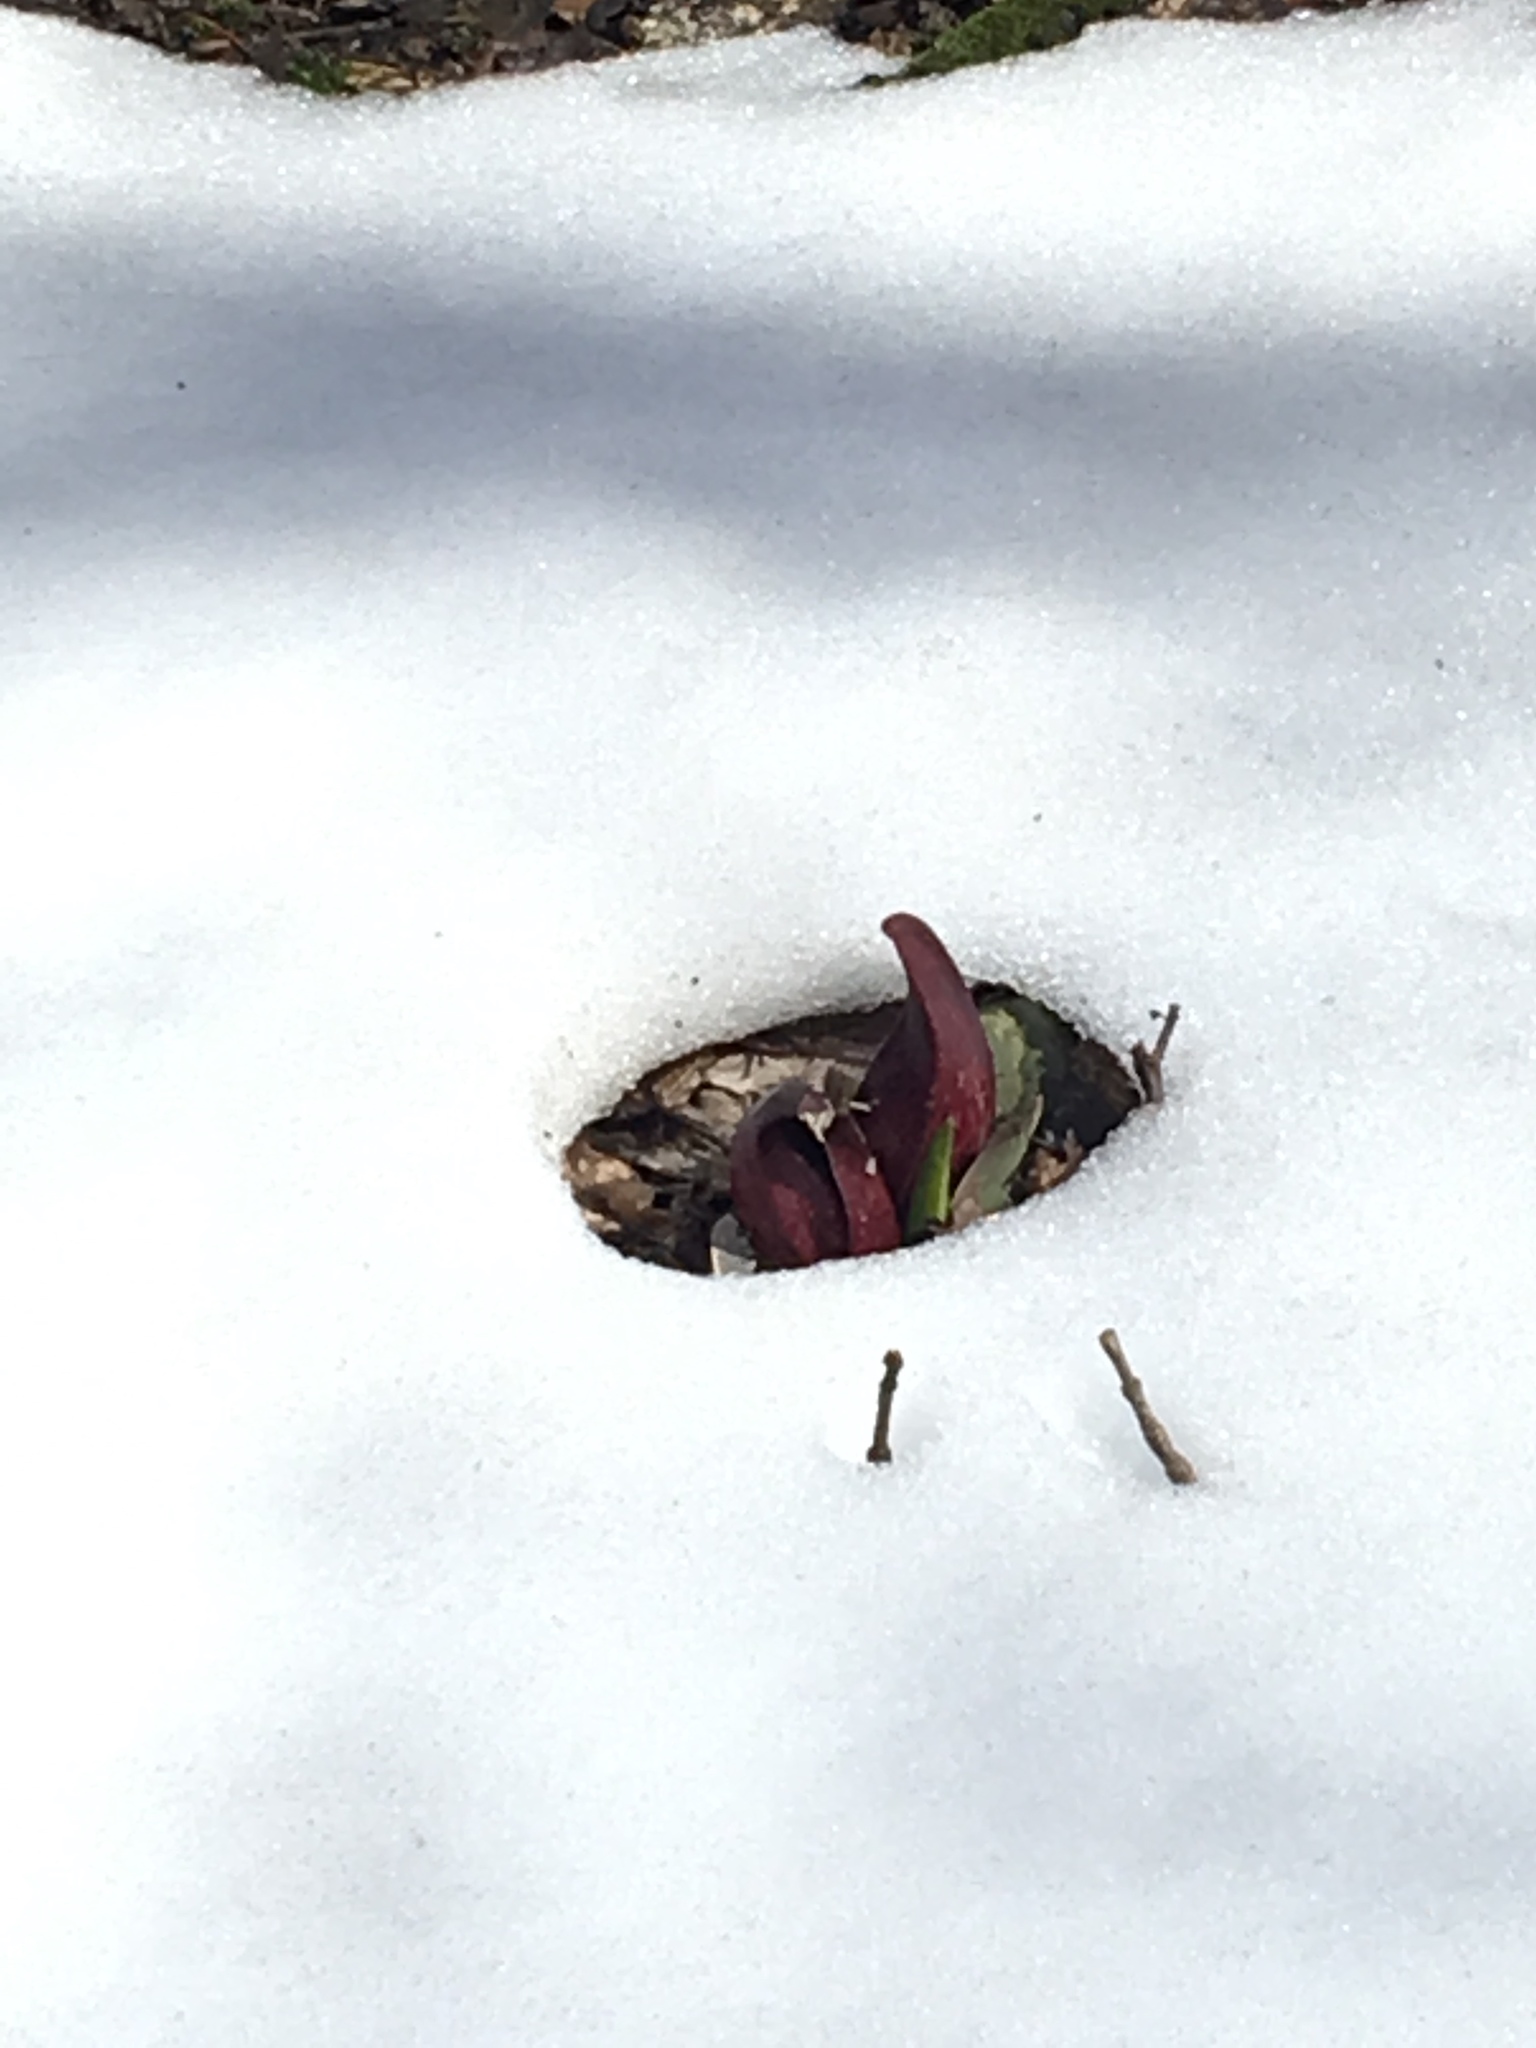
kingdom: Plantae
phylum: Tracheophyta
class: Liliopsida
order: Alismatales
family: Araceae
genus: Symplocarpus
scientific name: Symplocarpus foetidus
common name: Eastern skunk cabbage
